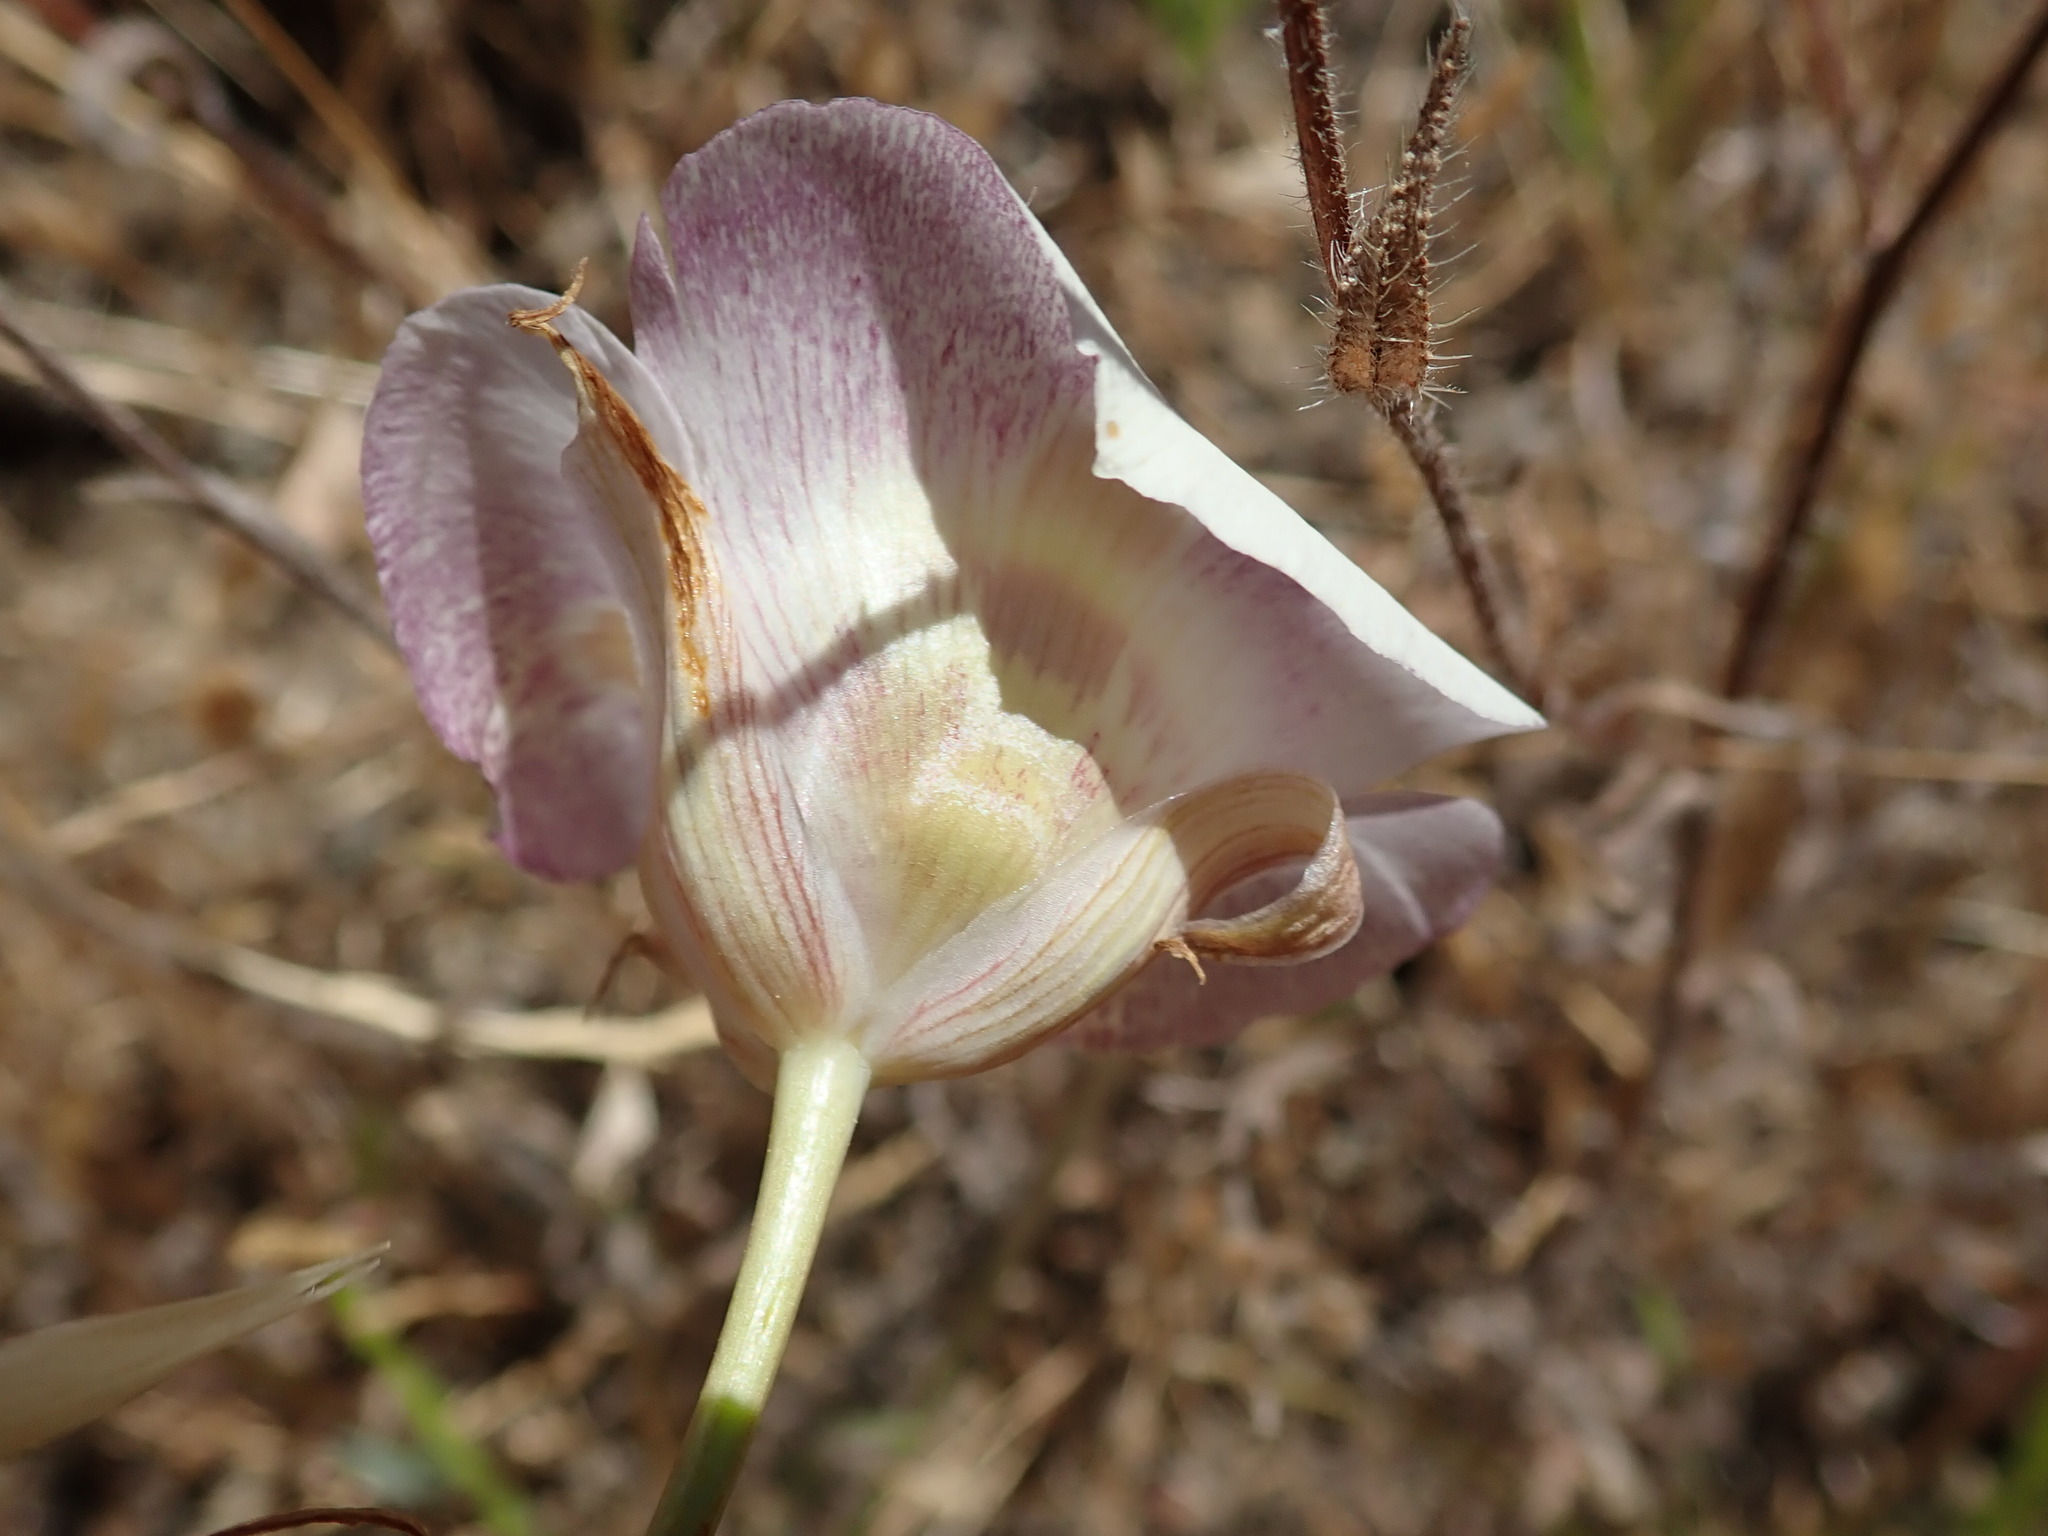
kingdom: Plantae
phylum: Tracheophyta
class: Liliopsida
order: Liliales
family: Liliaceae
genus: Calochortus
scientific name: Calochortus venustus
